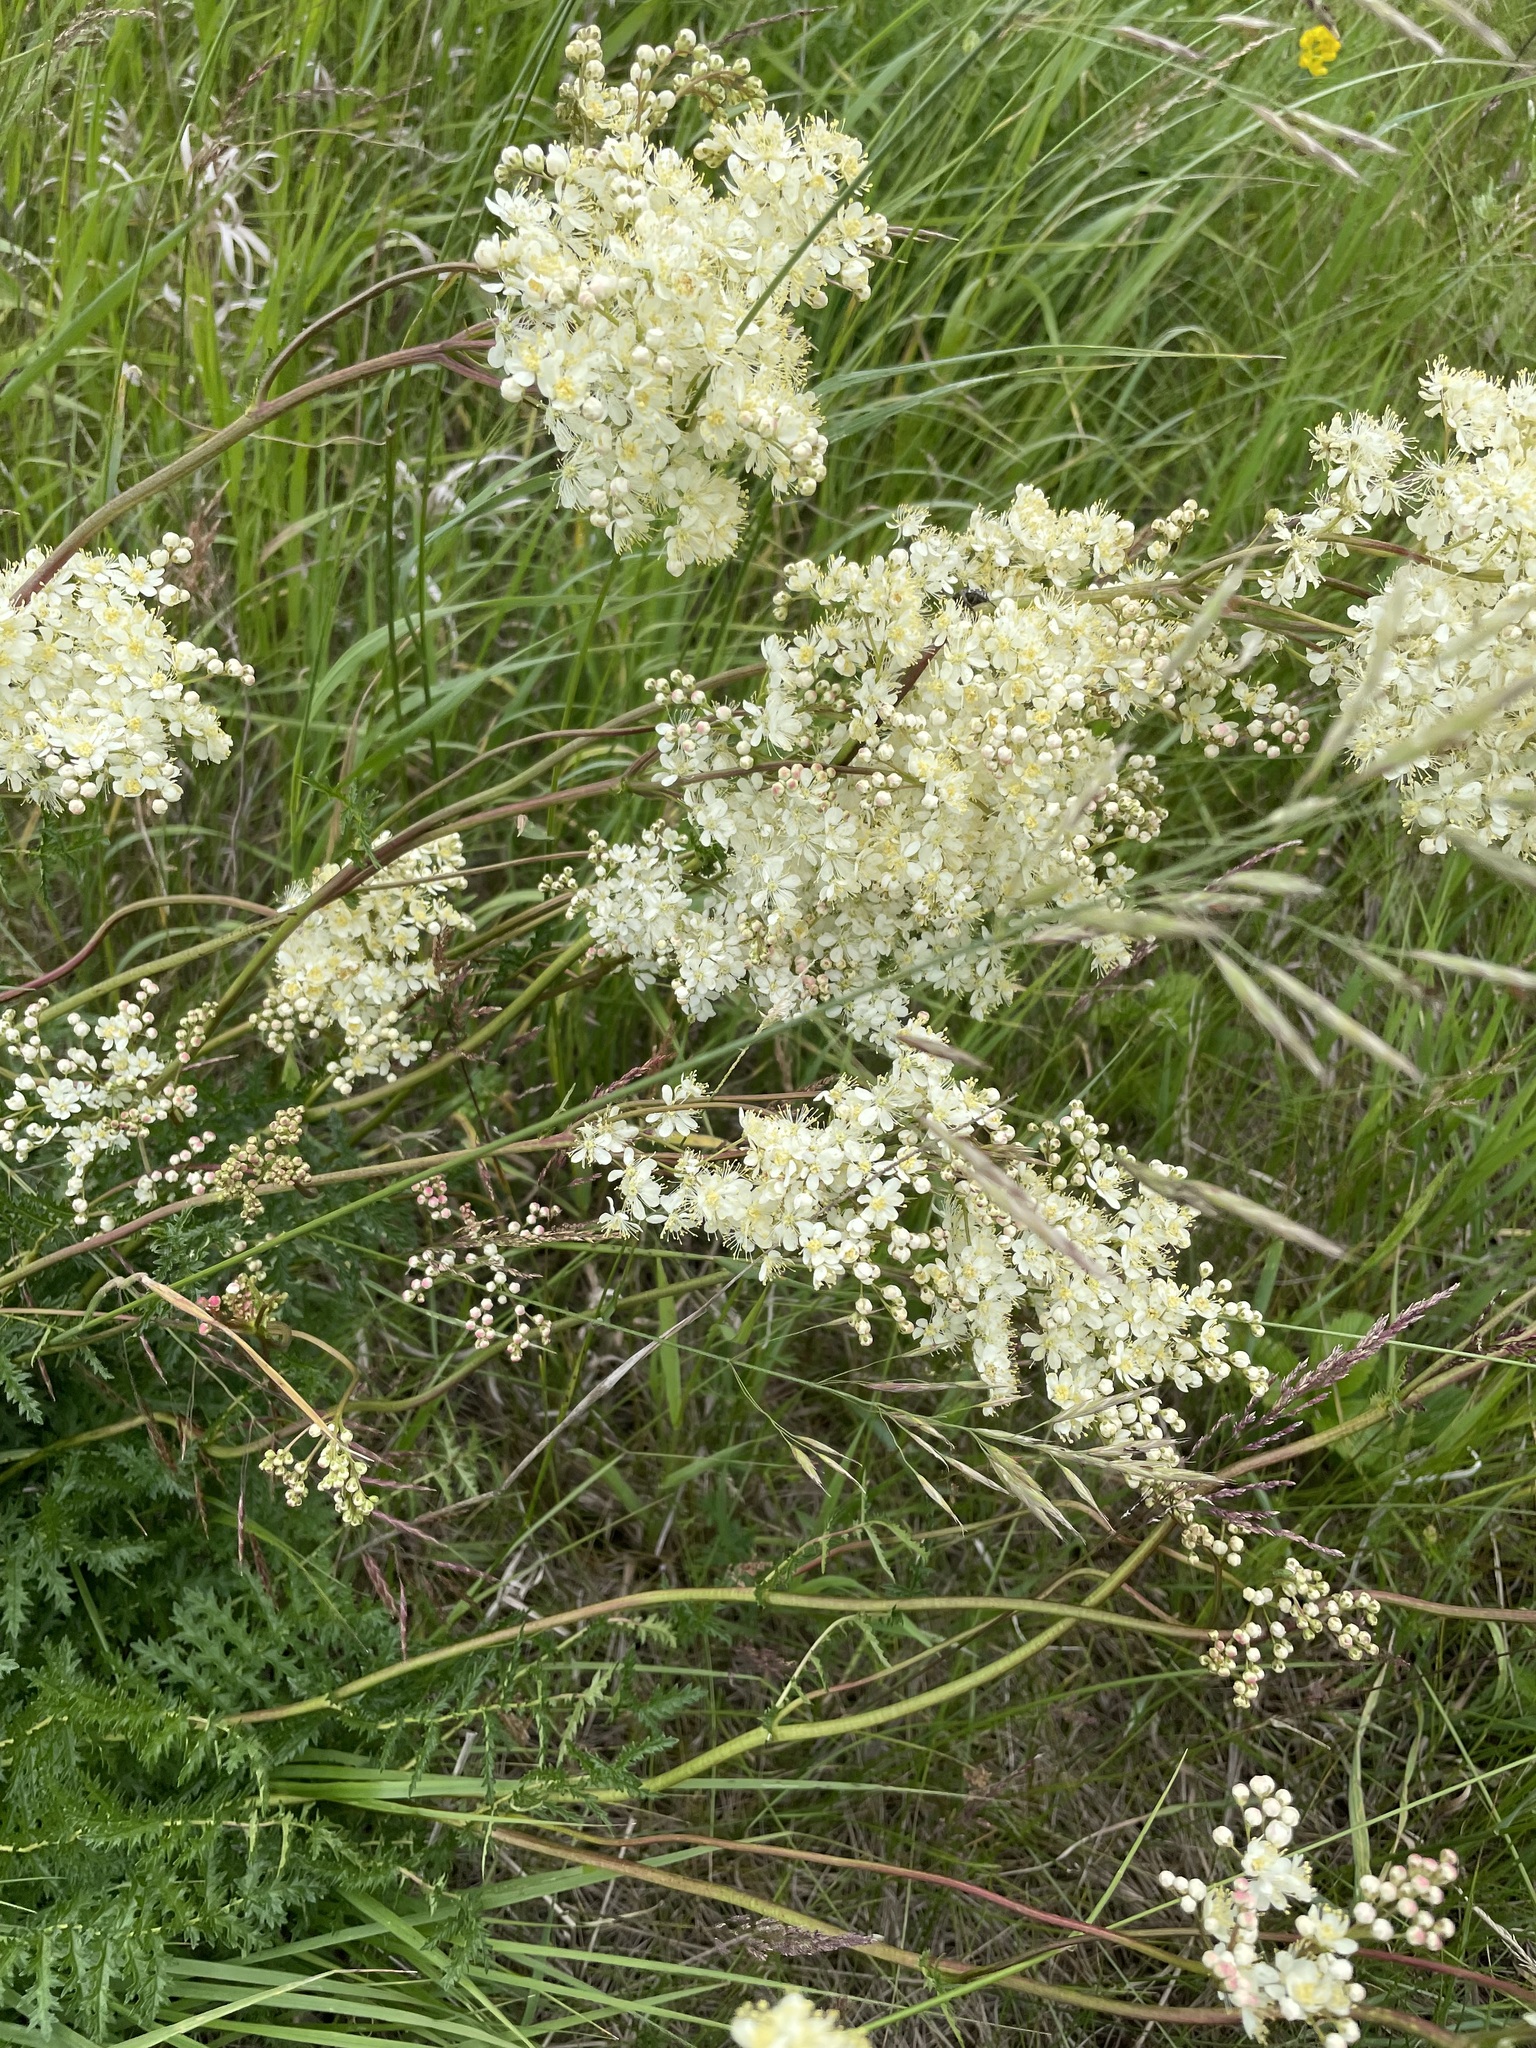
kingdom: Plantae
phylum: Tracheophyta
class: Magnoliopsida
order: Rosales
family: Rosaceae
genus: Filipendula
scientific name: Filipendula vulgaris
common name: Dropwort
